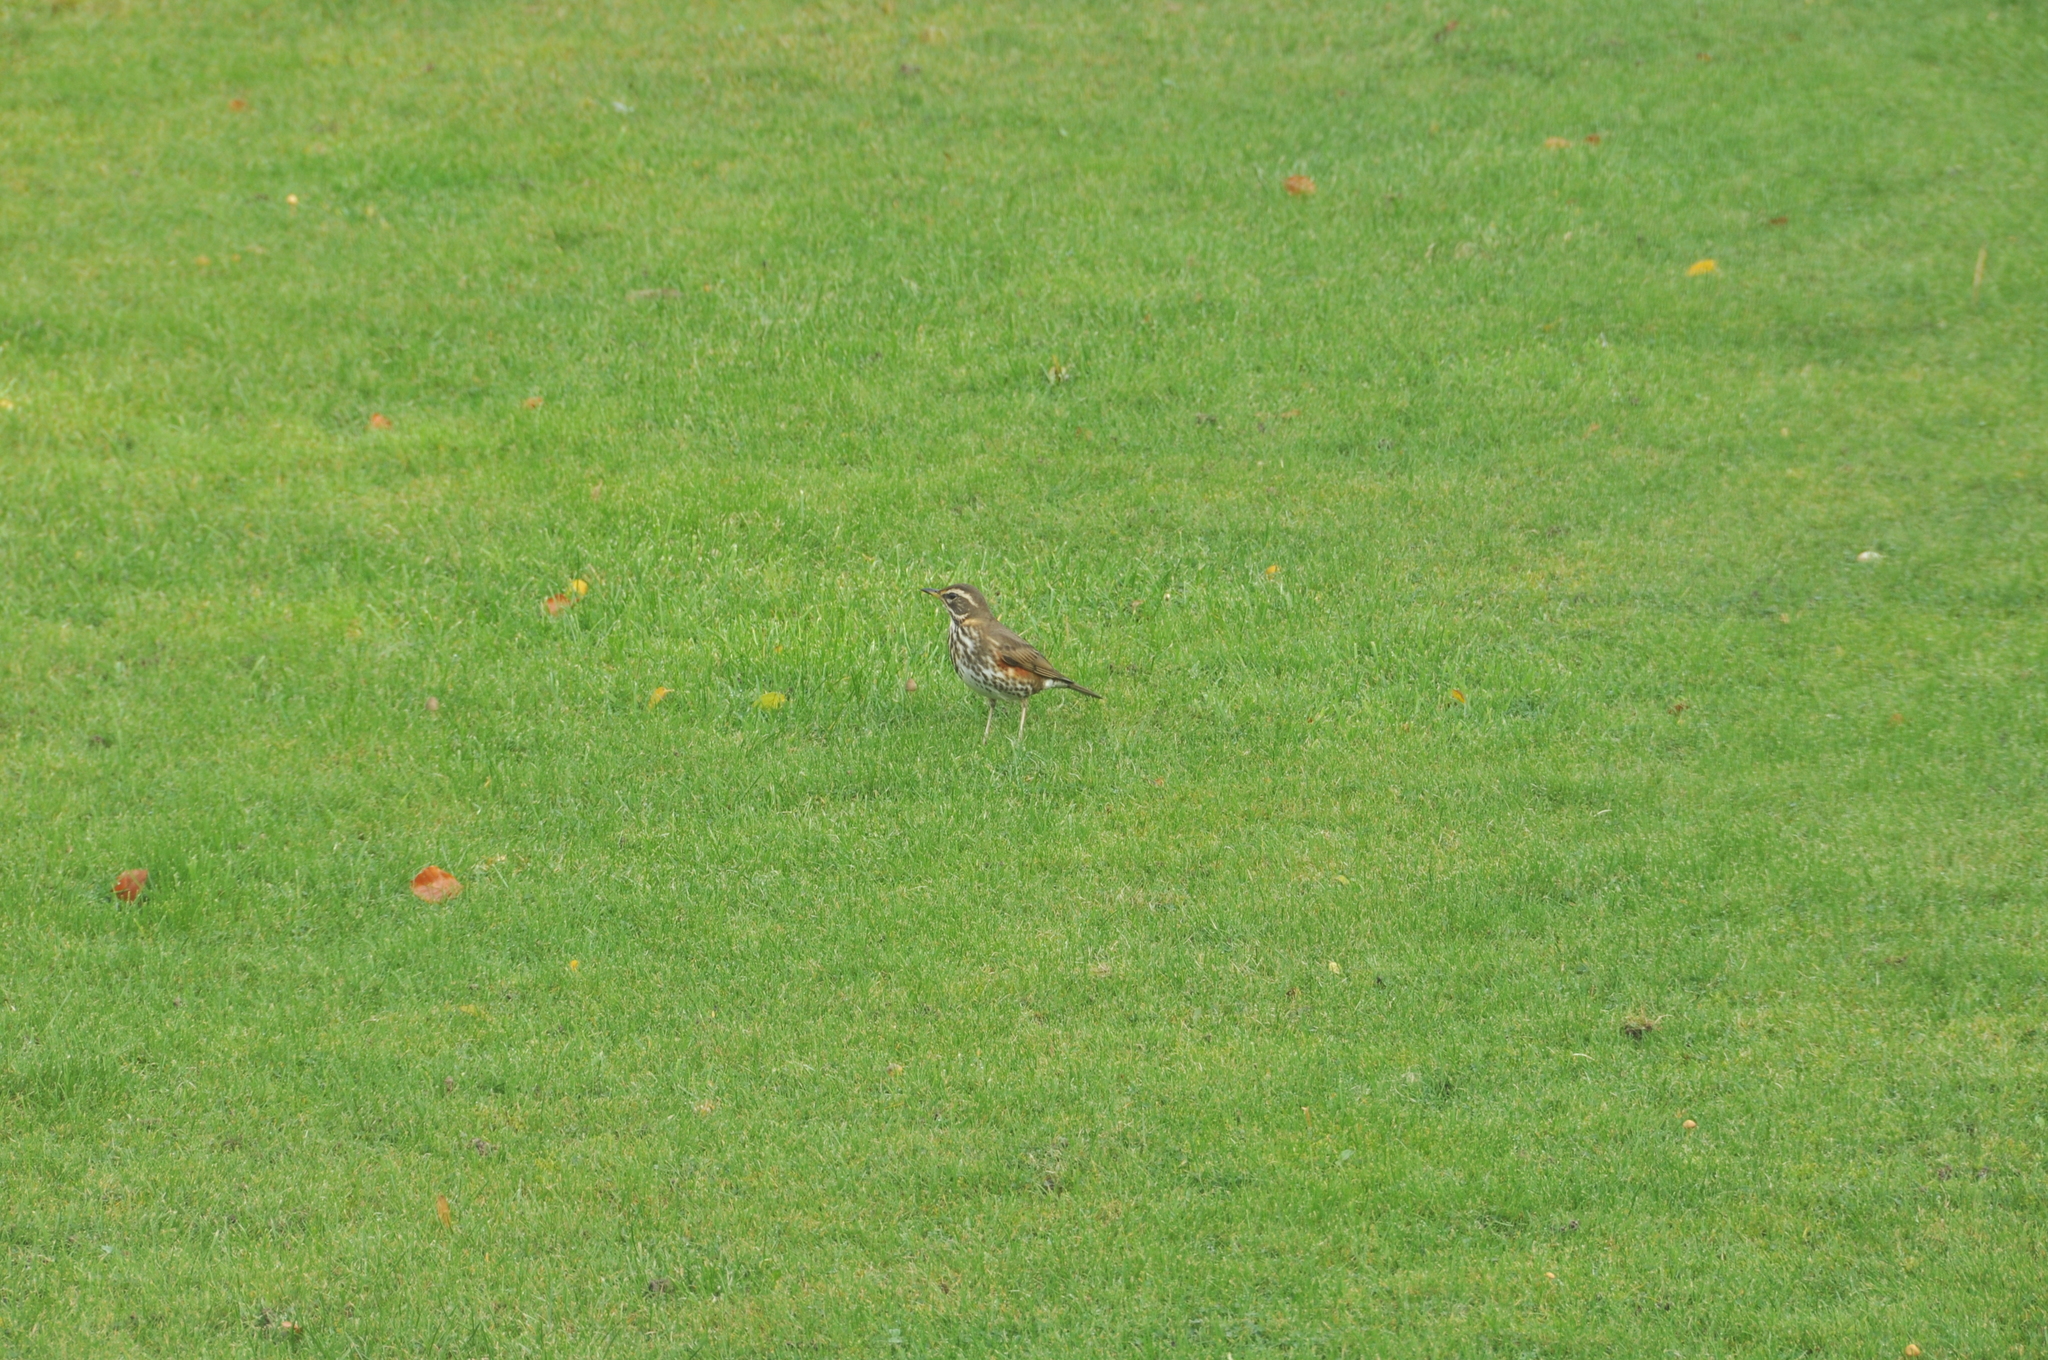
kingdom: Animalia
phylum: Chordata
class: Aves
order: Passeriformes
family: Turdidae
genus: Turdus
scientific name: Turdus iliacus
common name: Redwing
